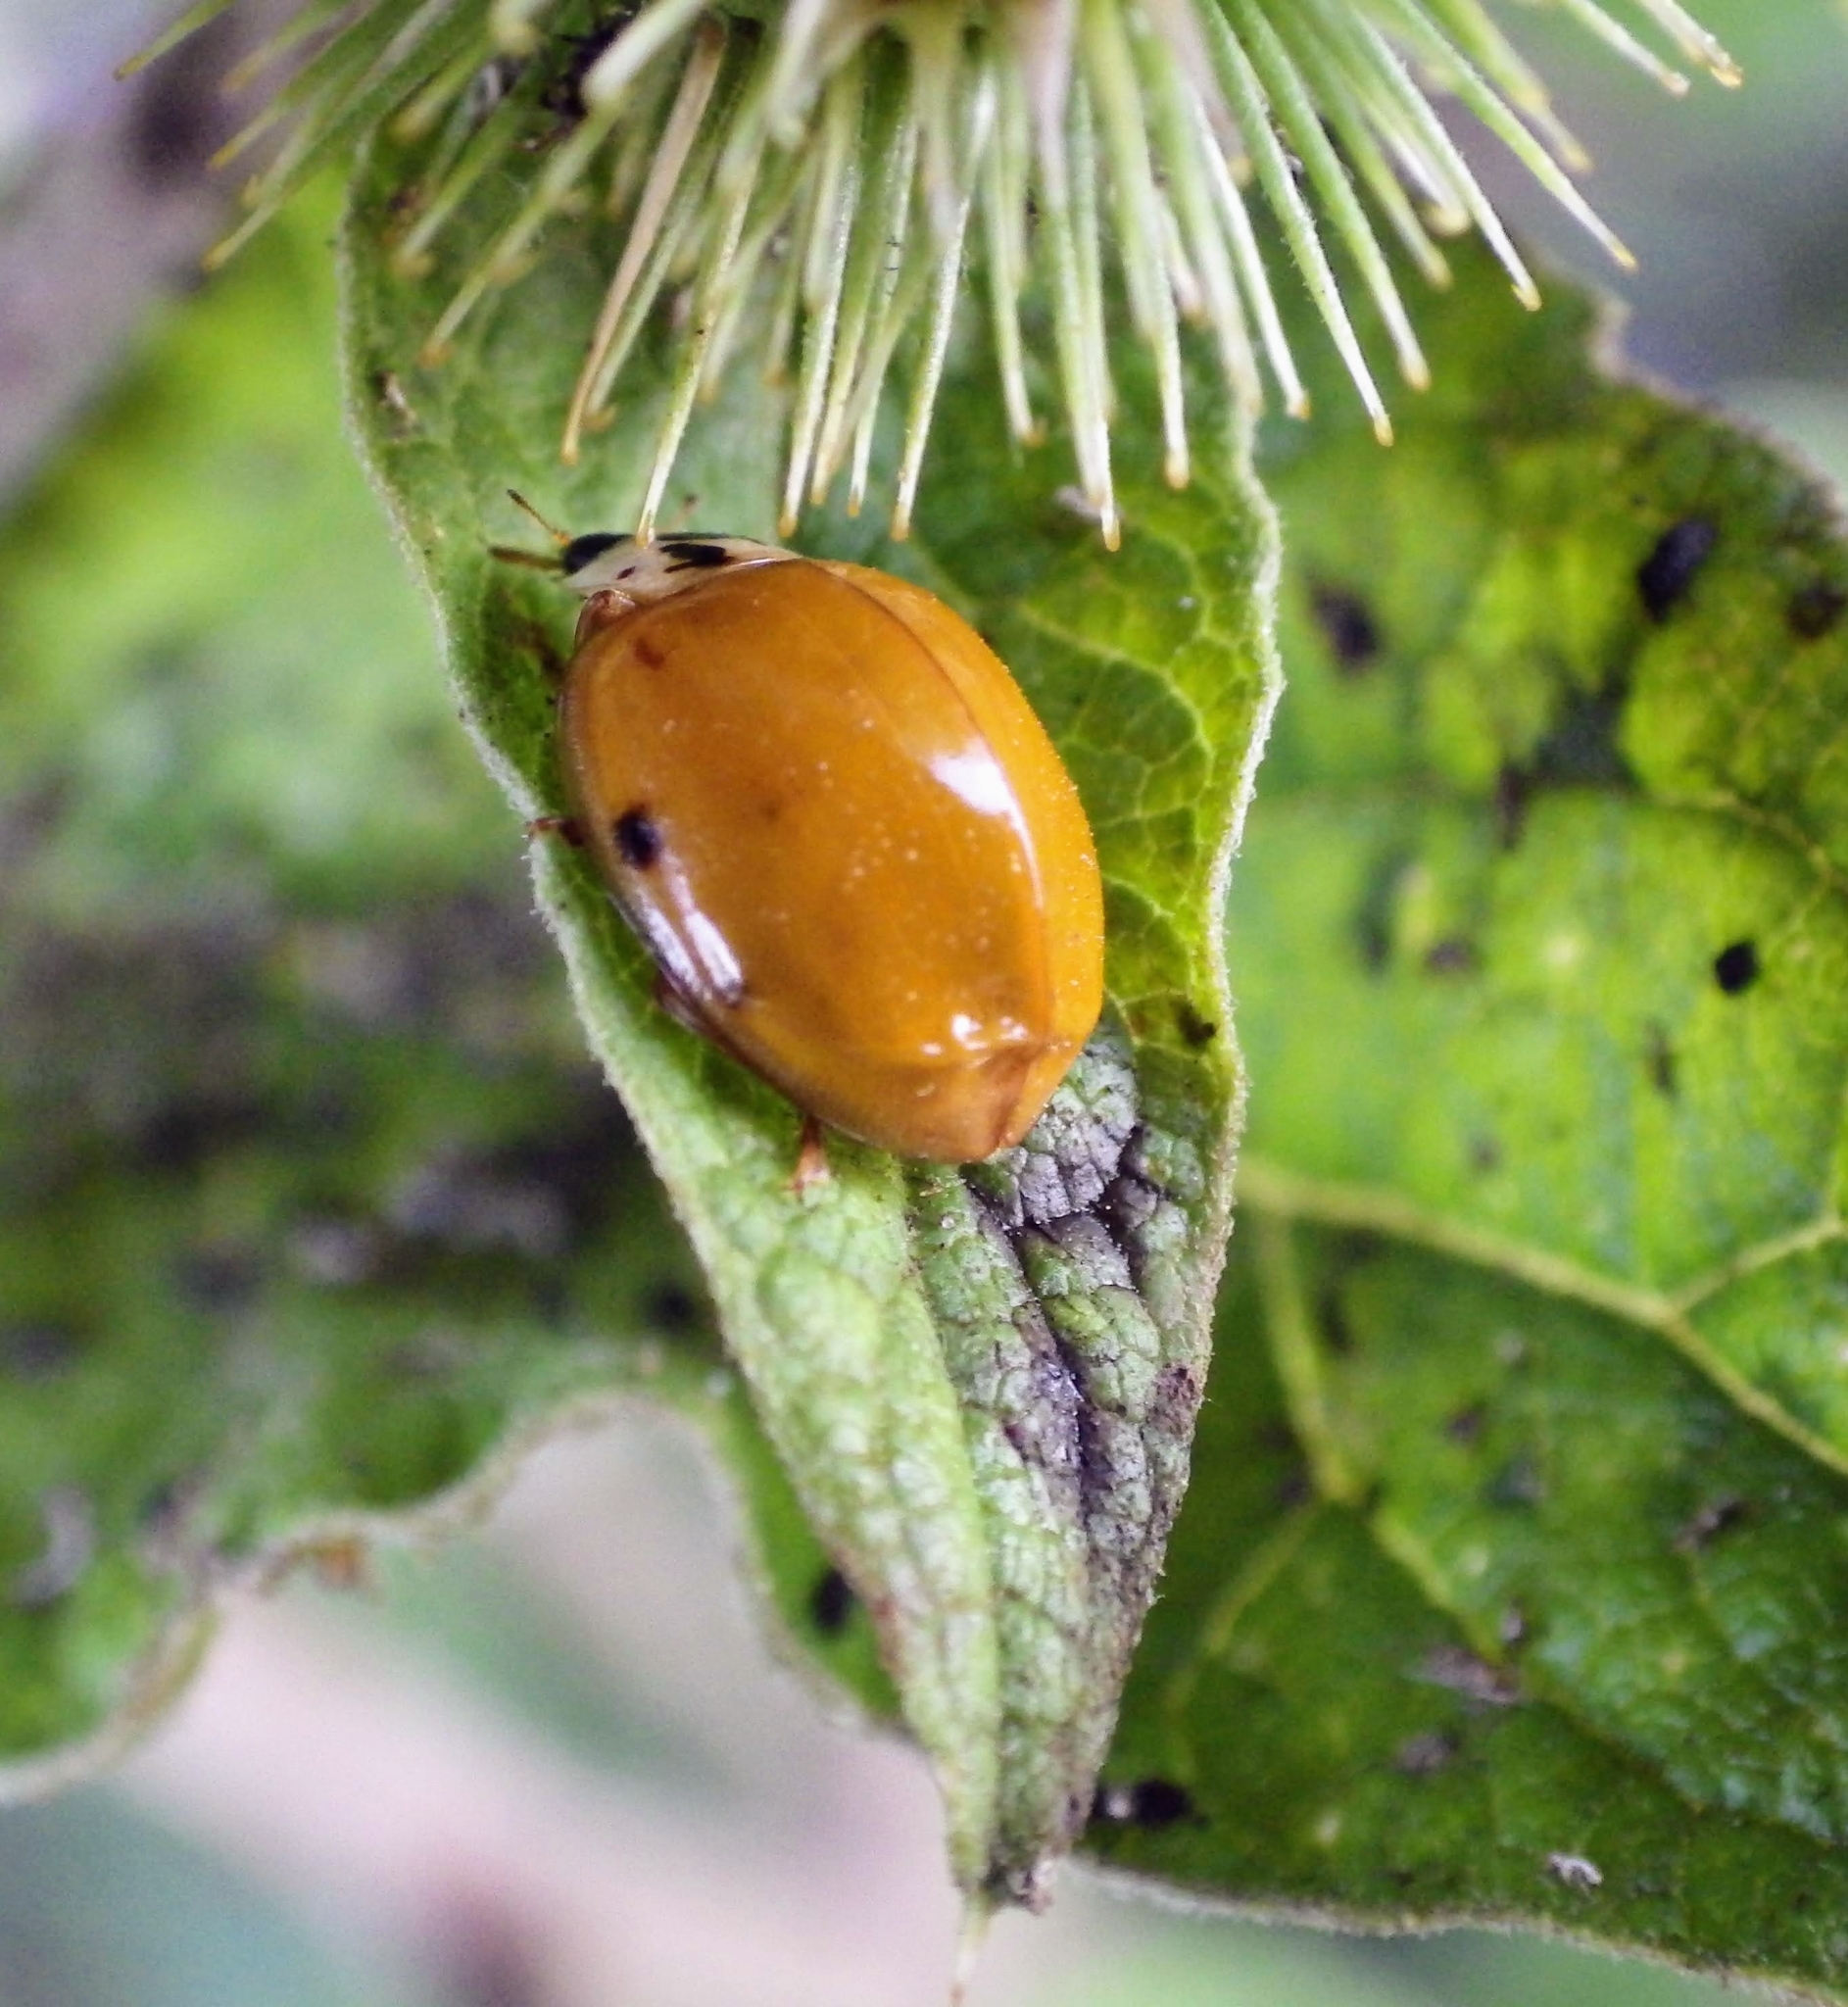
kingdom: Animalia
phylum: Arthropoda
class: Insecta
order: Coleoptera
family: Coccinellidae
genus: Harmonia
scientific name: Harmonia axyridis
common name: Harlequin ladybird
